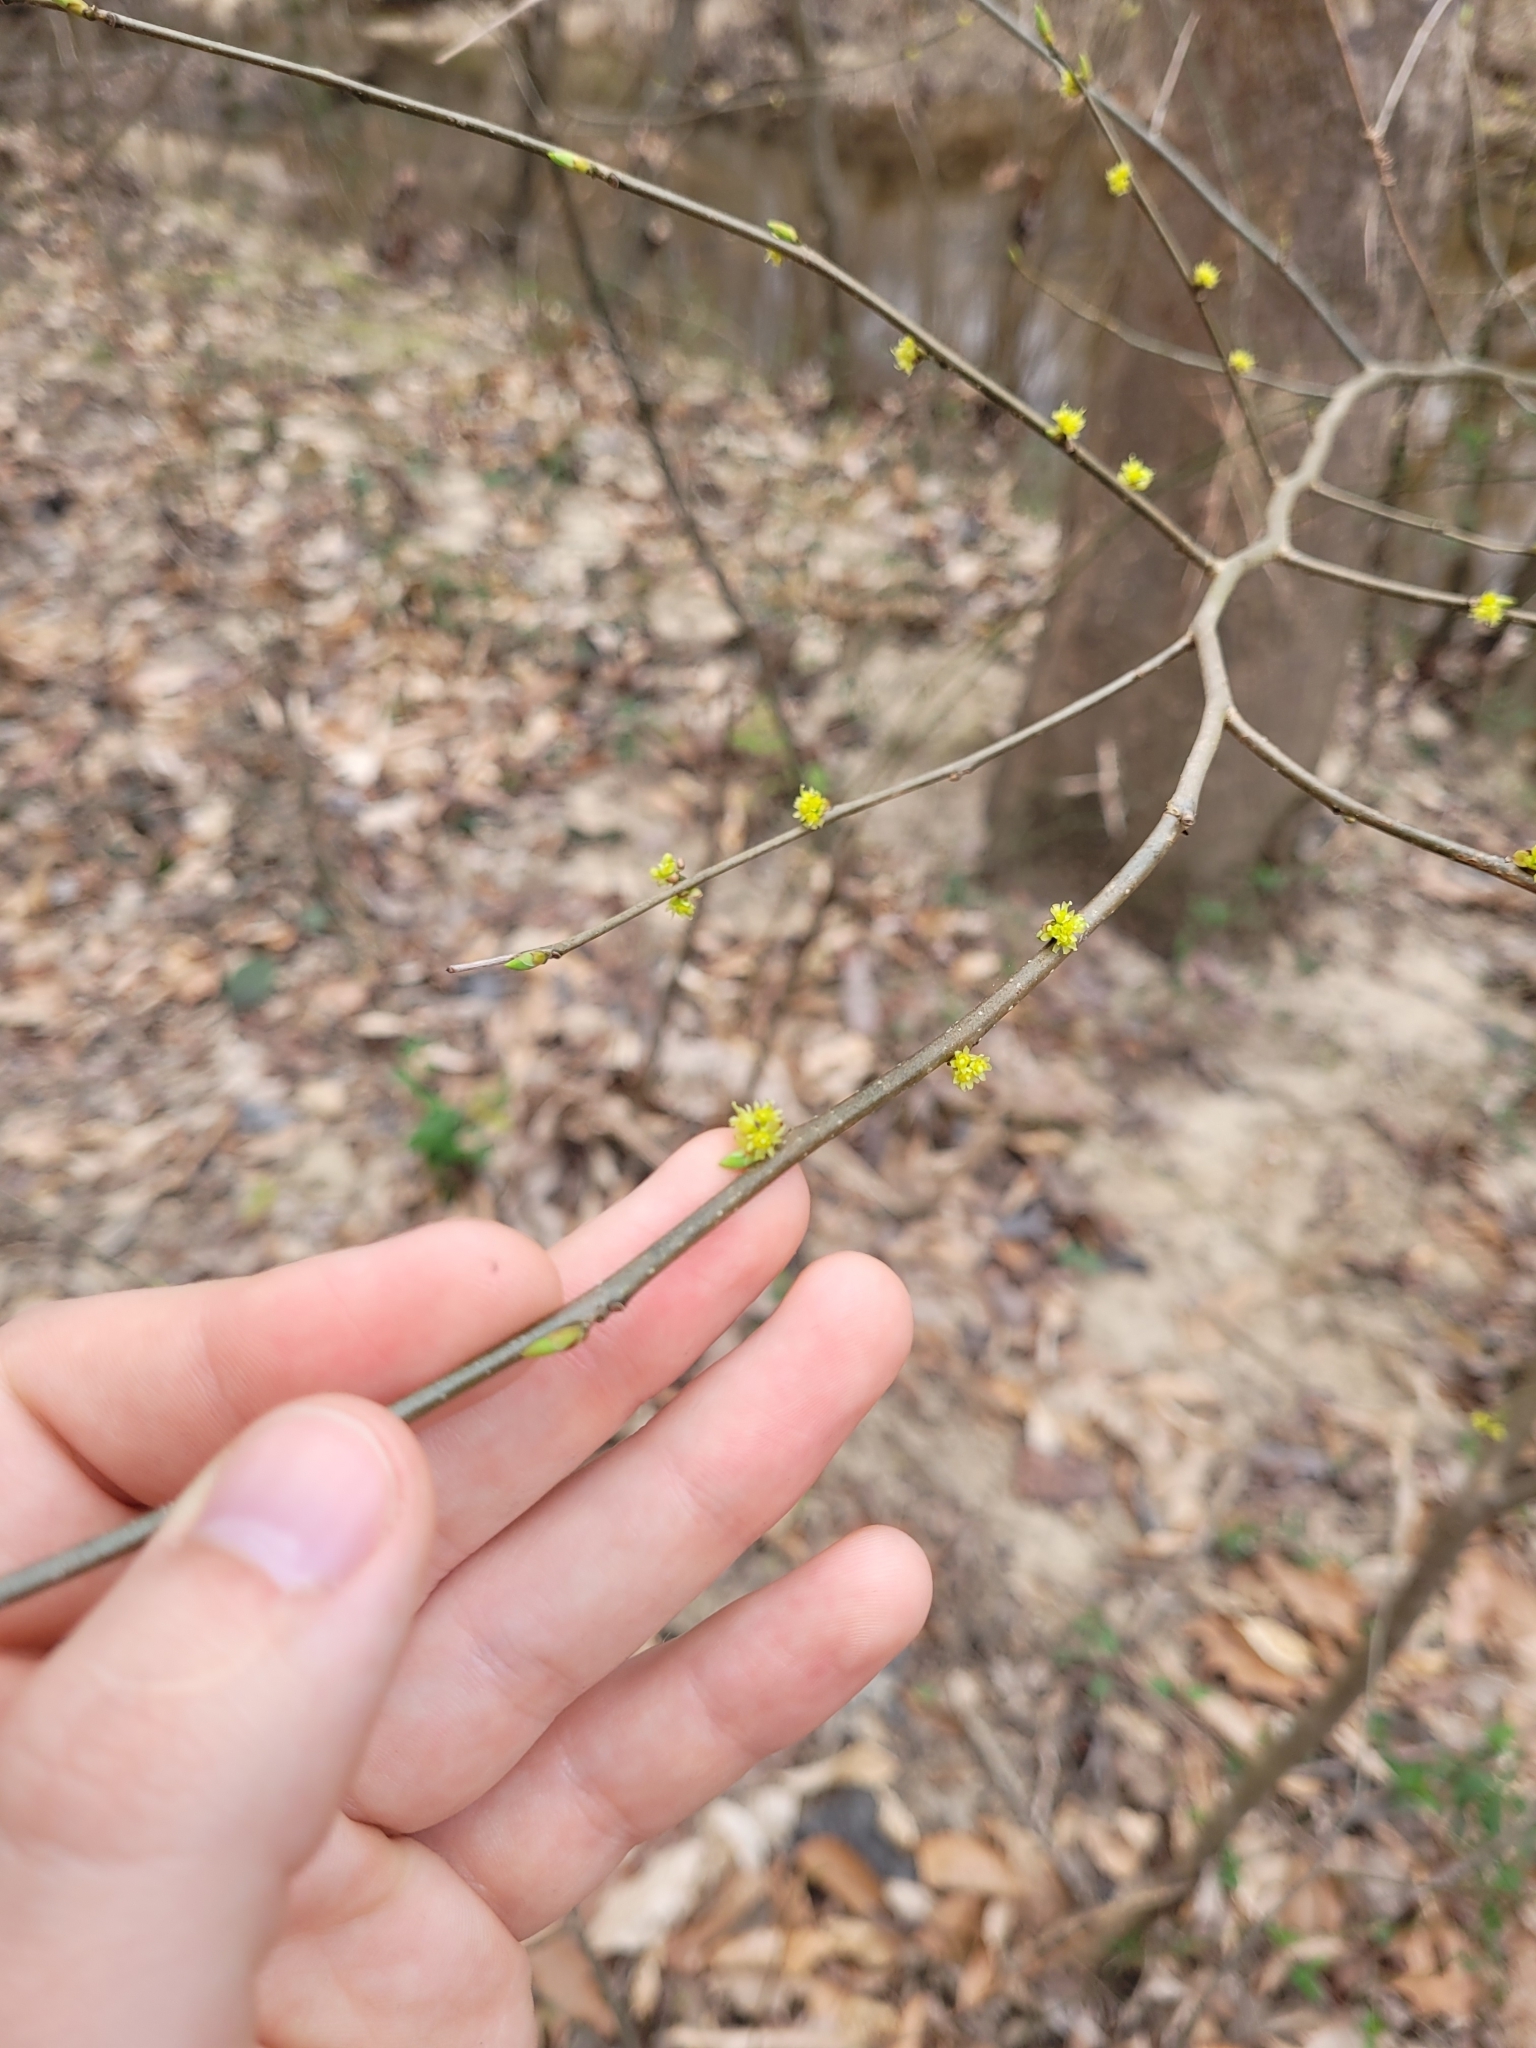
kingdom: Plantae
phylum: Tracheophyta
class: Magnoliopsida
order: Laurales
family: Lauraceae
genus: Lindera
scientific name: Lindera benzoin
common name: Spicebush
